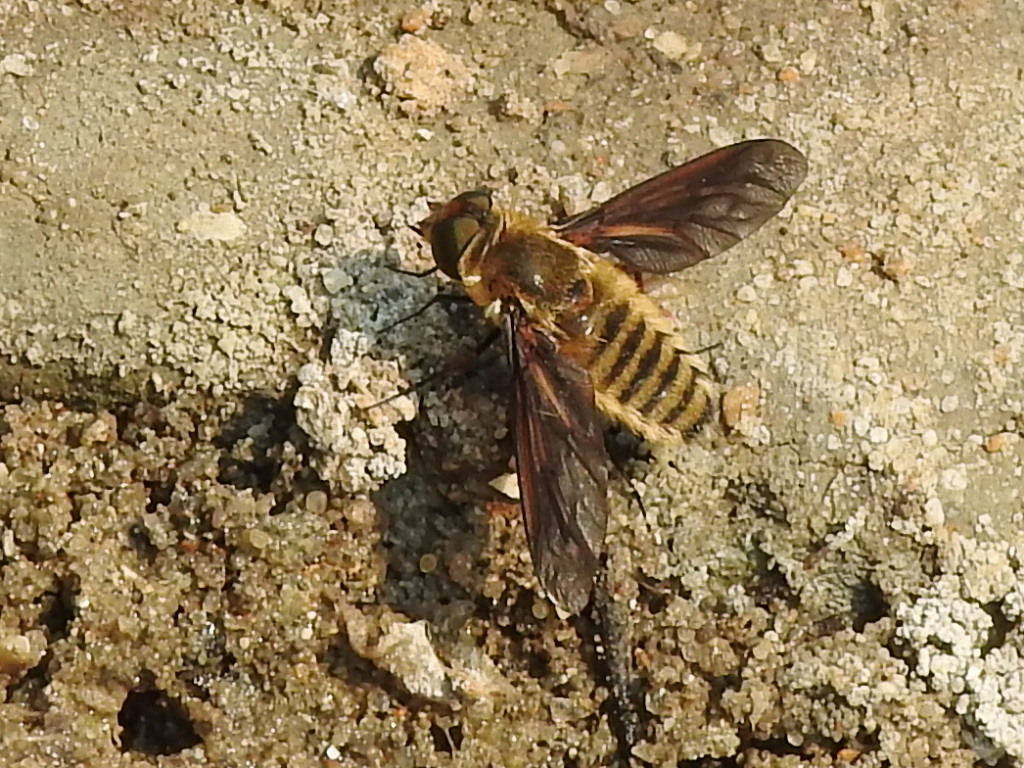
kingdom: Animalia
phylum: Arthropoda
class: Insecta
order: Diptera
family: Bombyliidae
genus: Poecilanthrax
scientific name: Poecilanthrax lucifer
